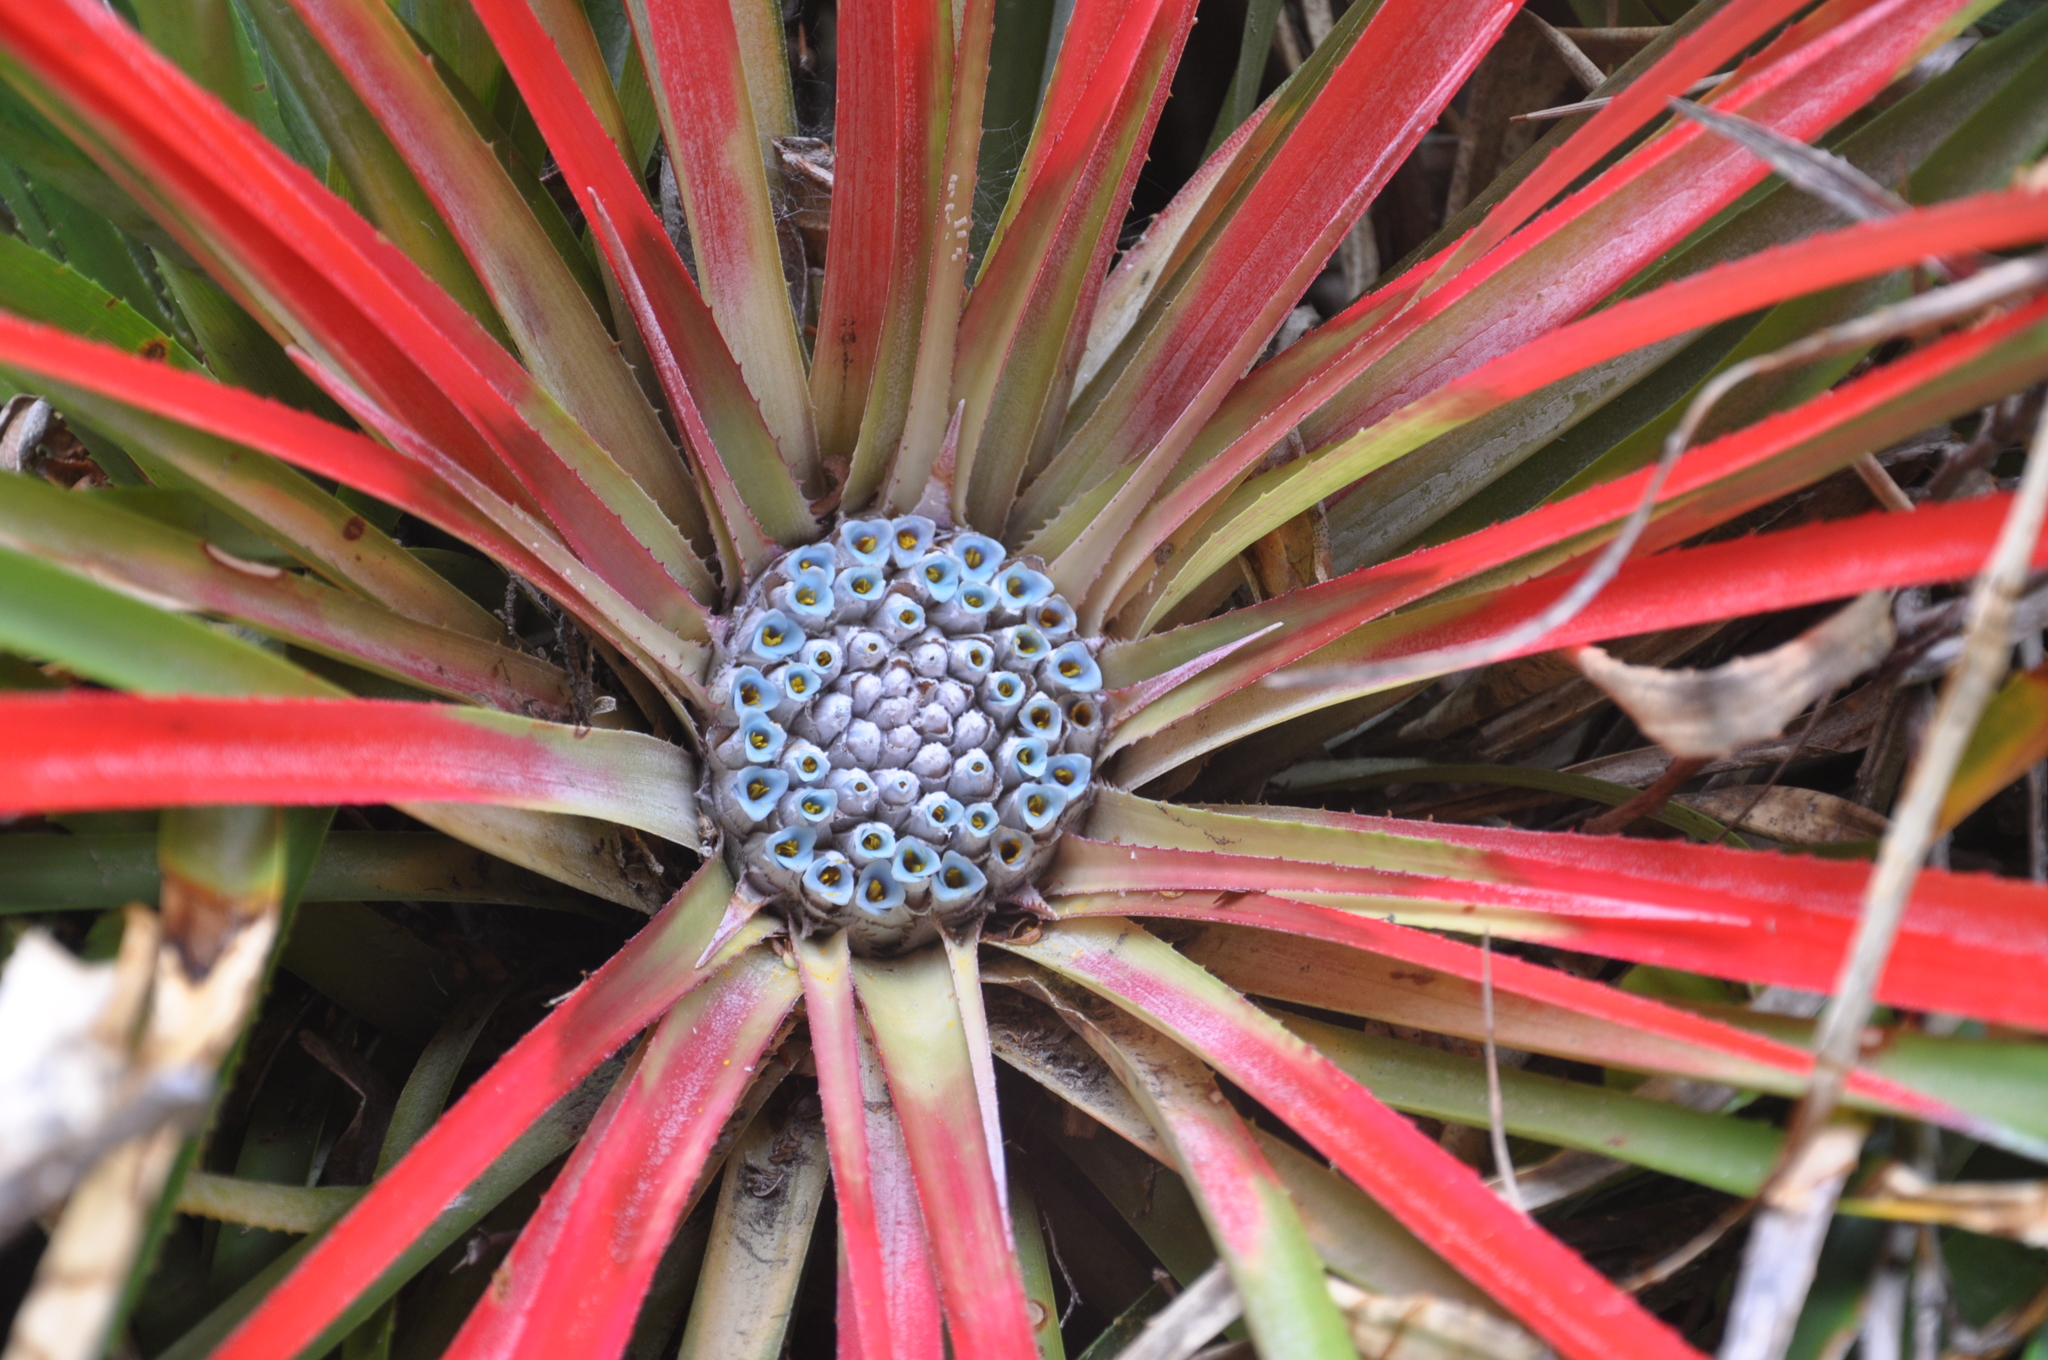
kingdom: Plantae
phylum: Tracheophyta
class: Liliopsida
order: Poales
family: Bromeliaceae
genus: Fascicularia
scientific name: Fascicularia bicolor
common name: Rhodostachys
